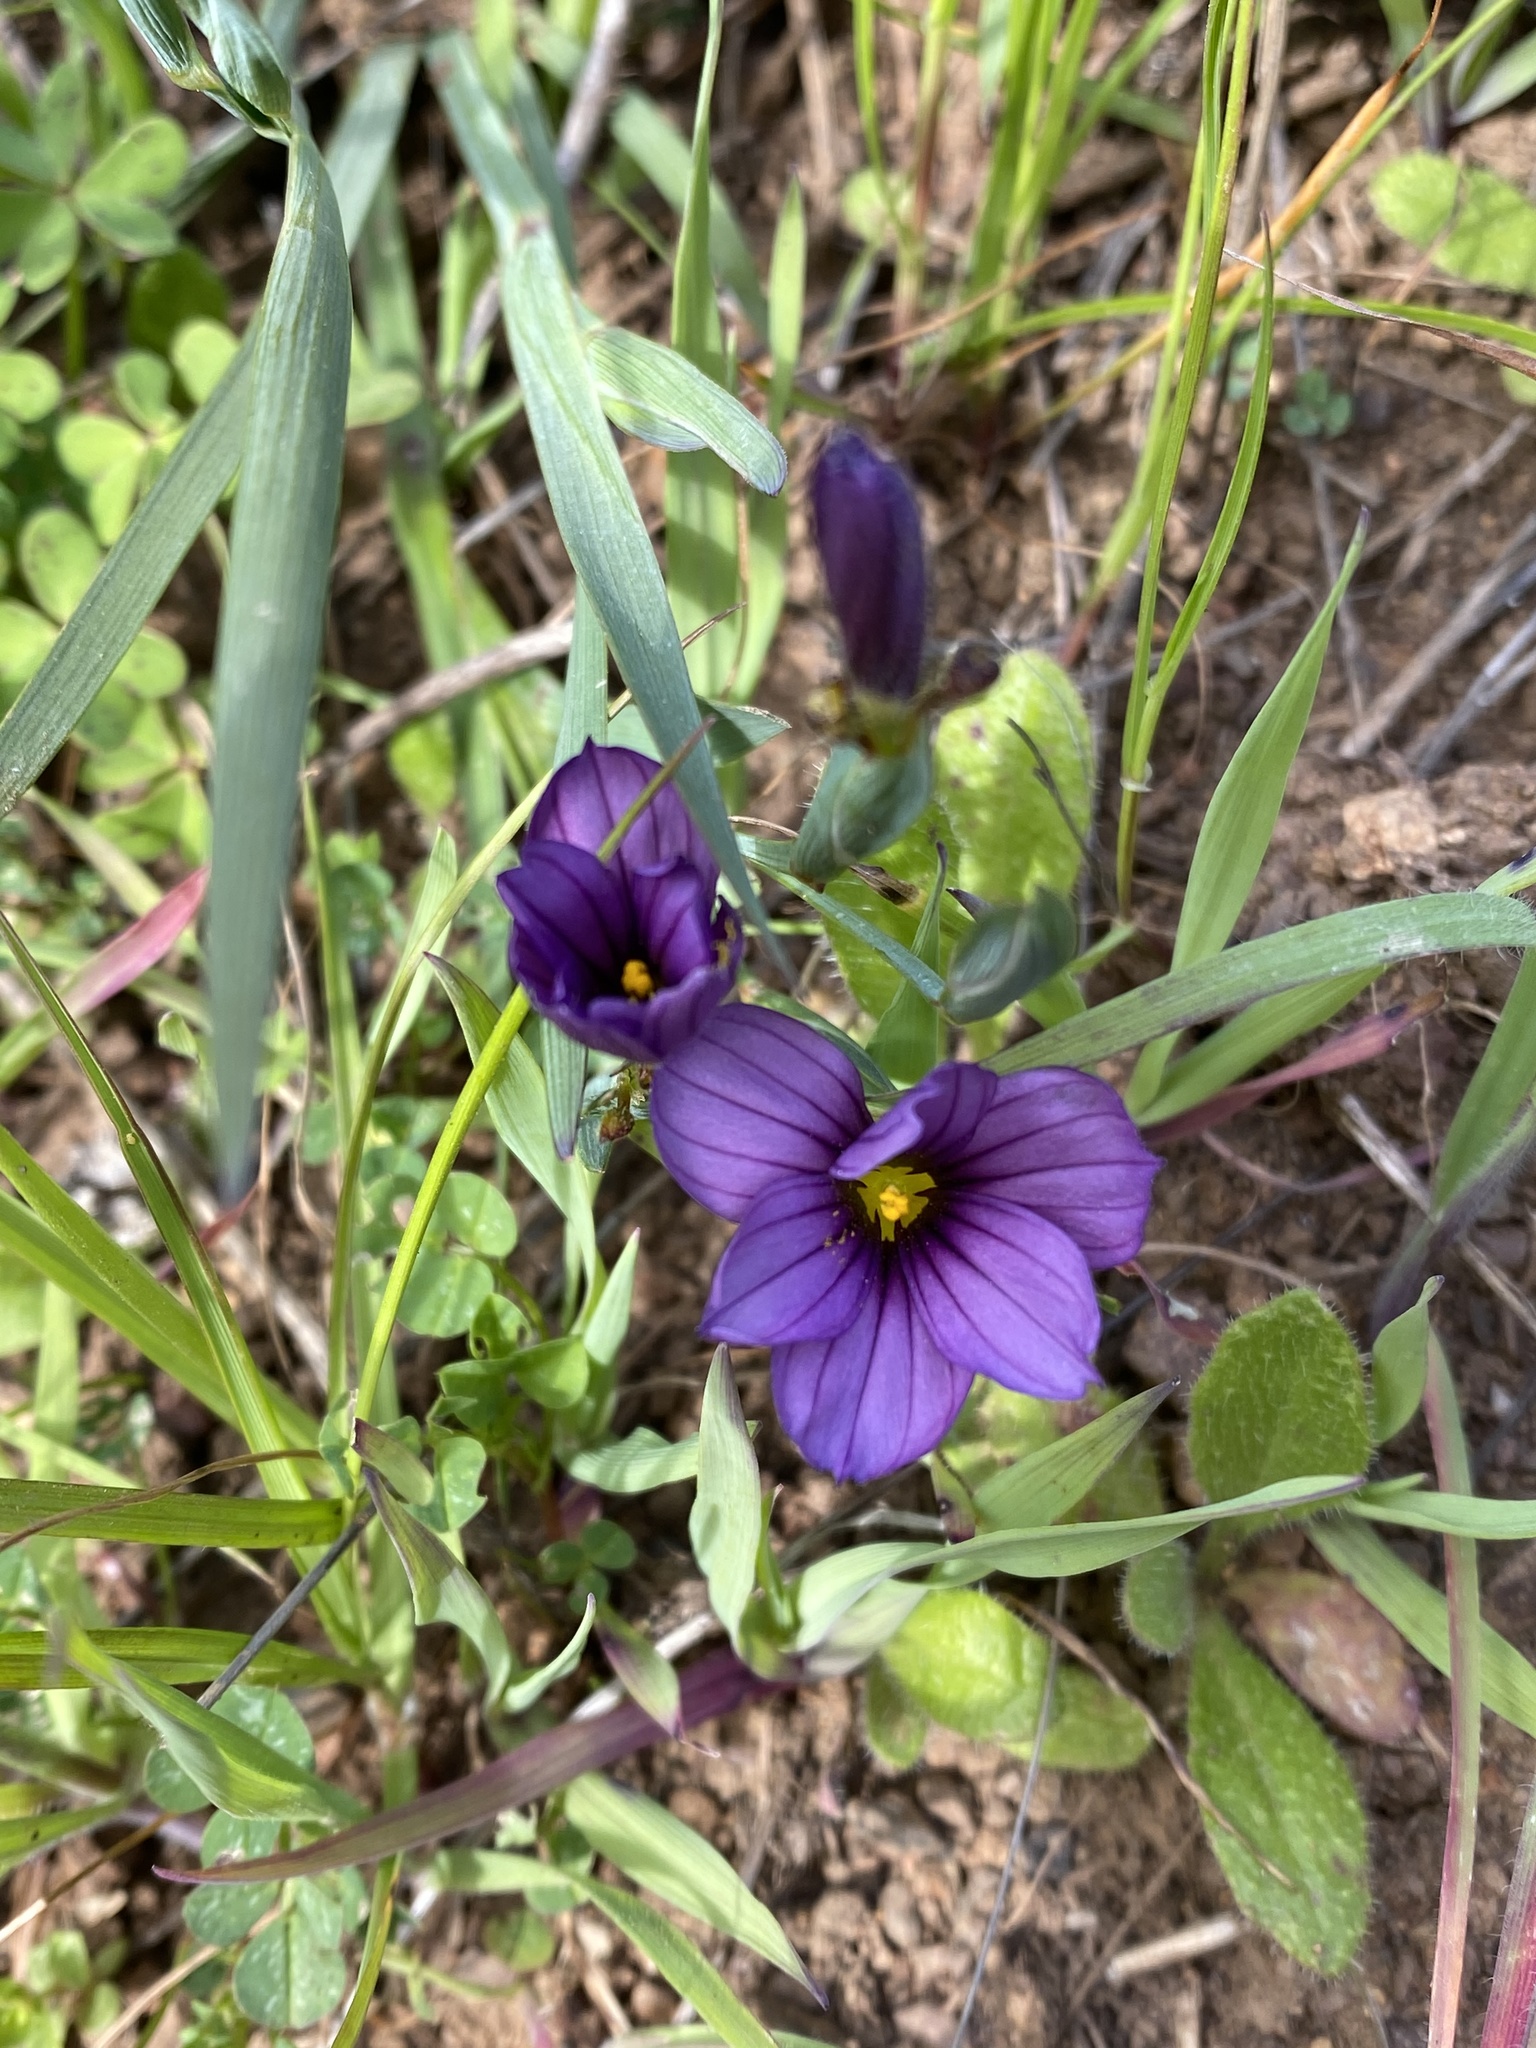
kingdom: Plantae
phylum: Tracheophyta
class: Liliopsida
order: Asparagales
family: Iridaceae
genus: Sisyrinchium
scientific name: Sisyrinchium bellum
